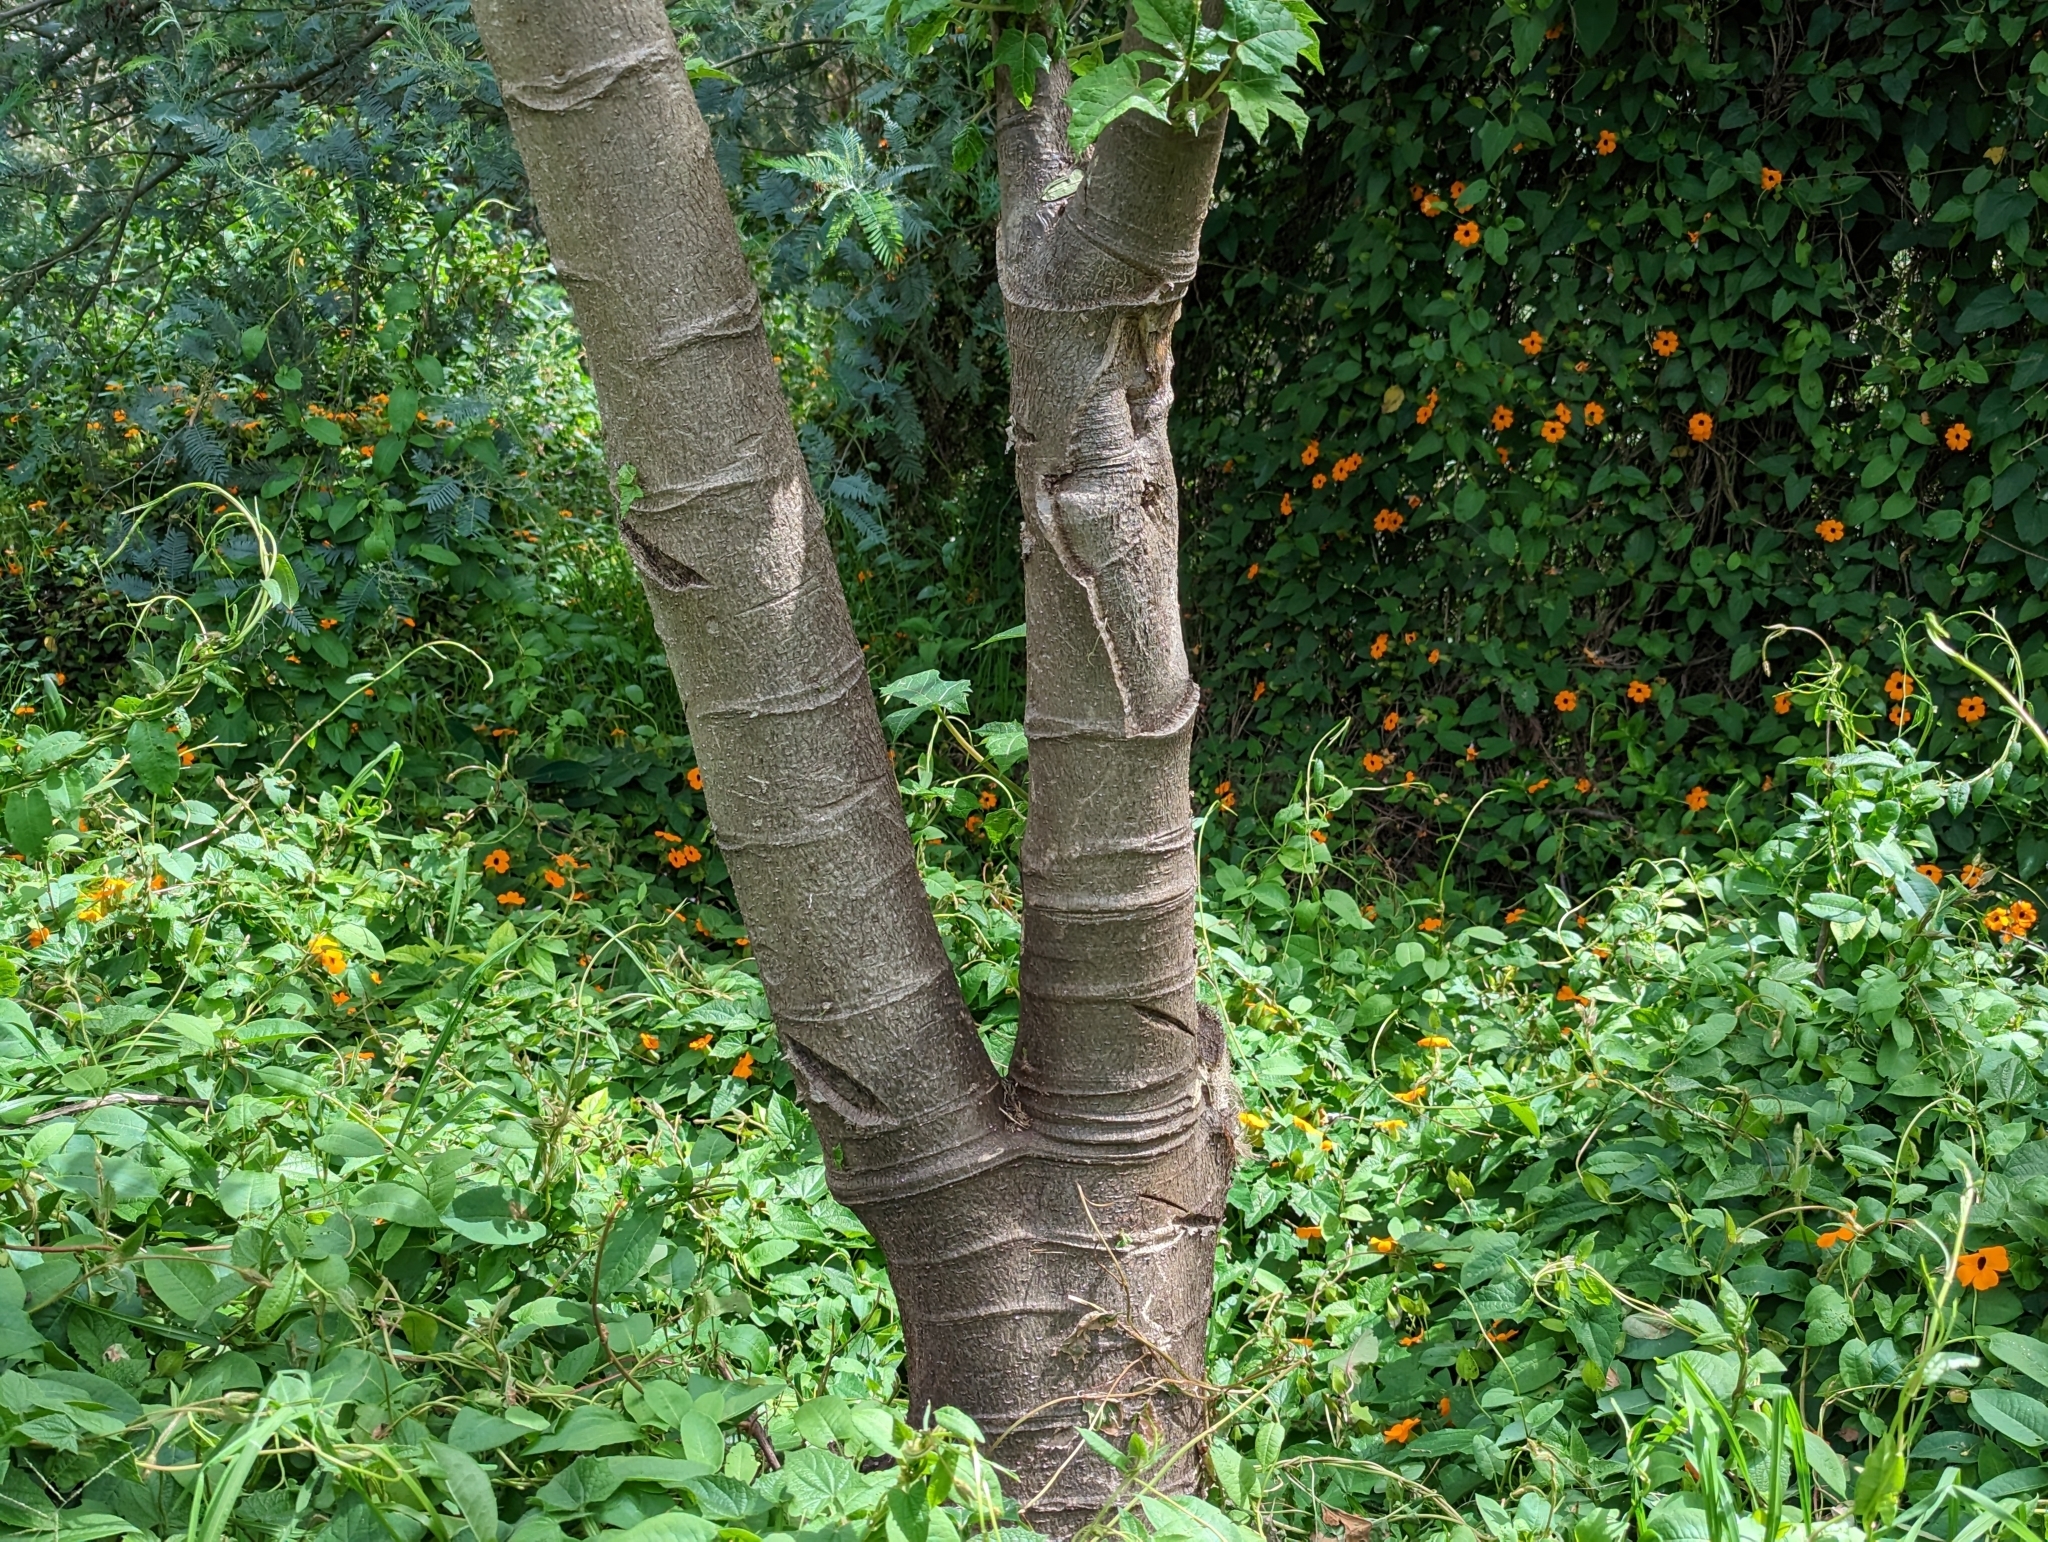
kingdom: Plantae
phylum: Tracheophyta
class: Magnoliopsida
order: Brassicales
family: Caricaceae
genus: Vasconcellea
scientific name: Vasconcellea pubescens
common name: Mountain papaya
